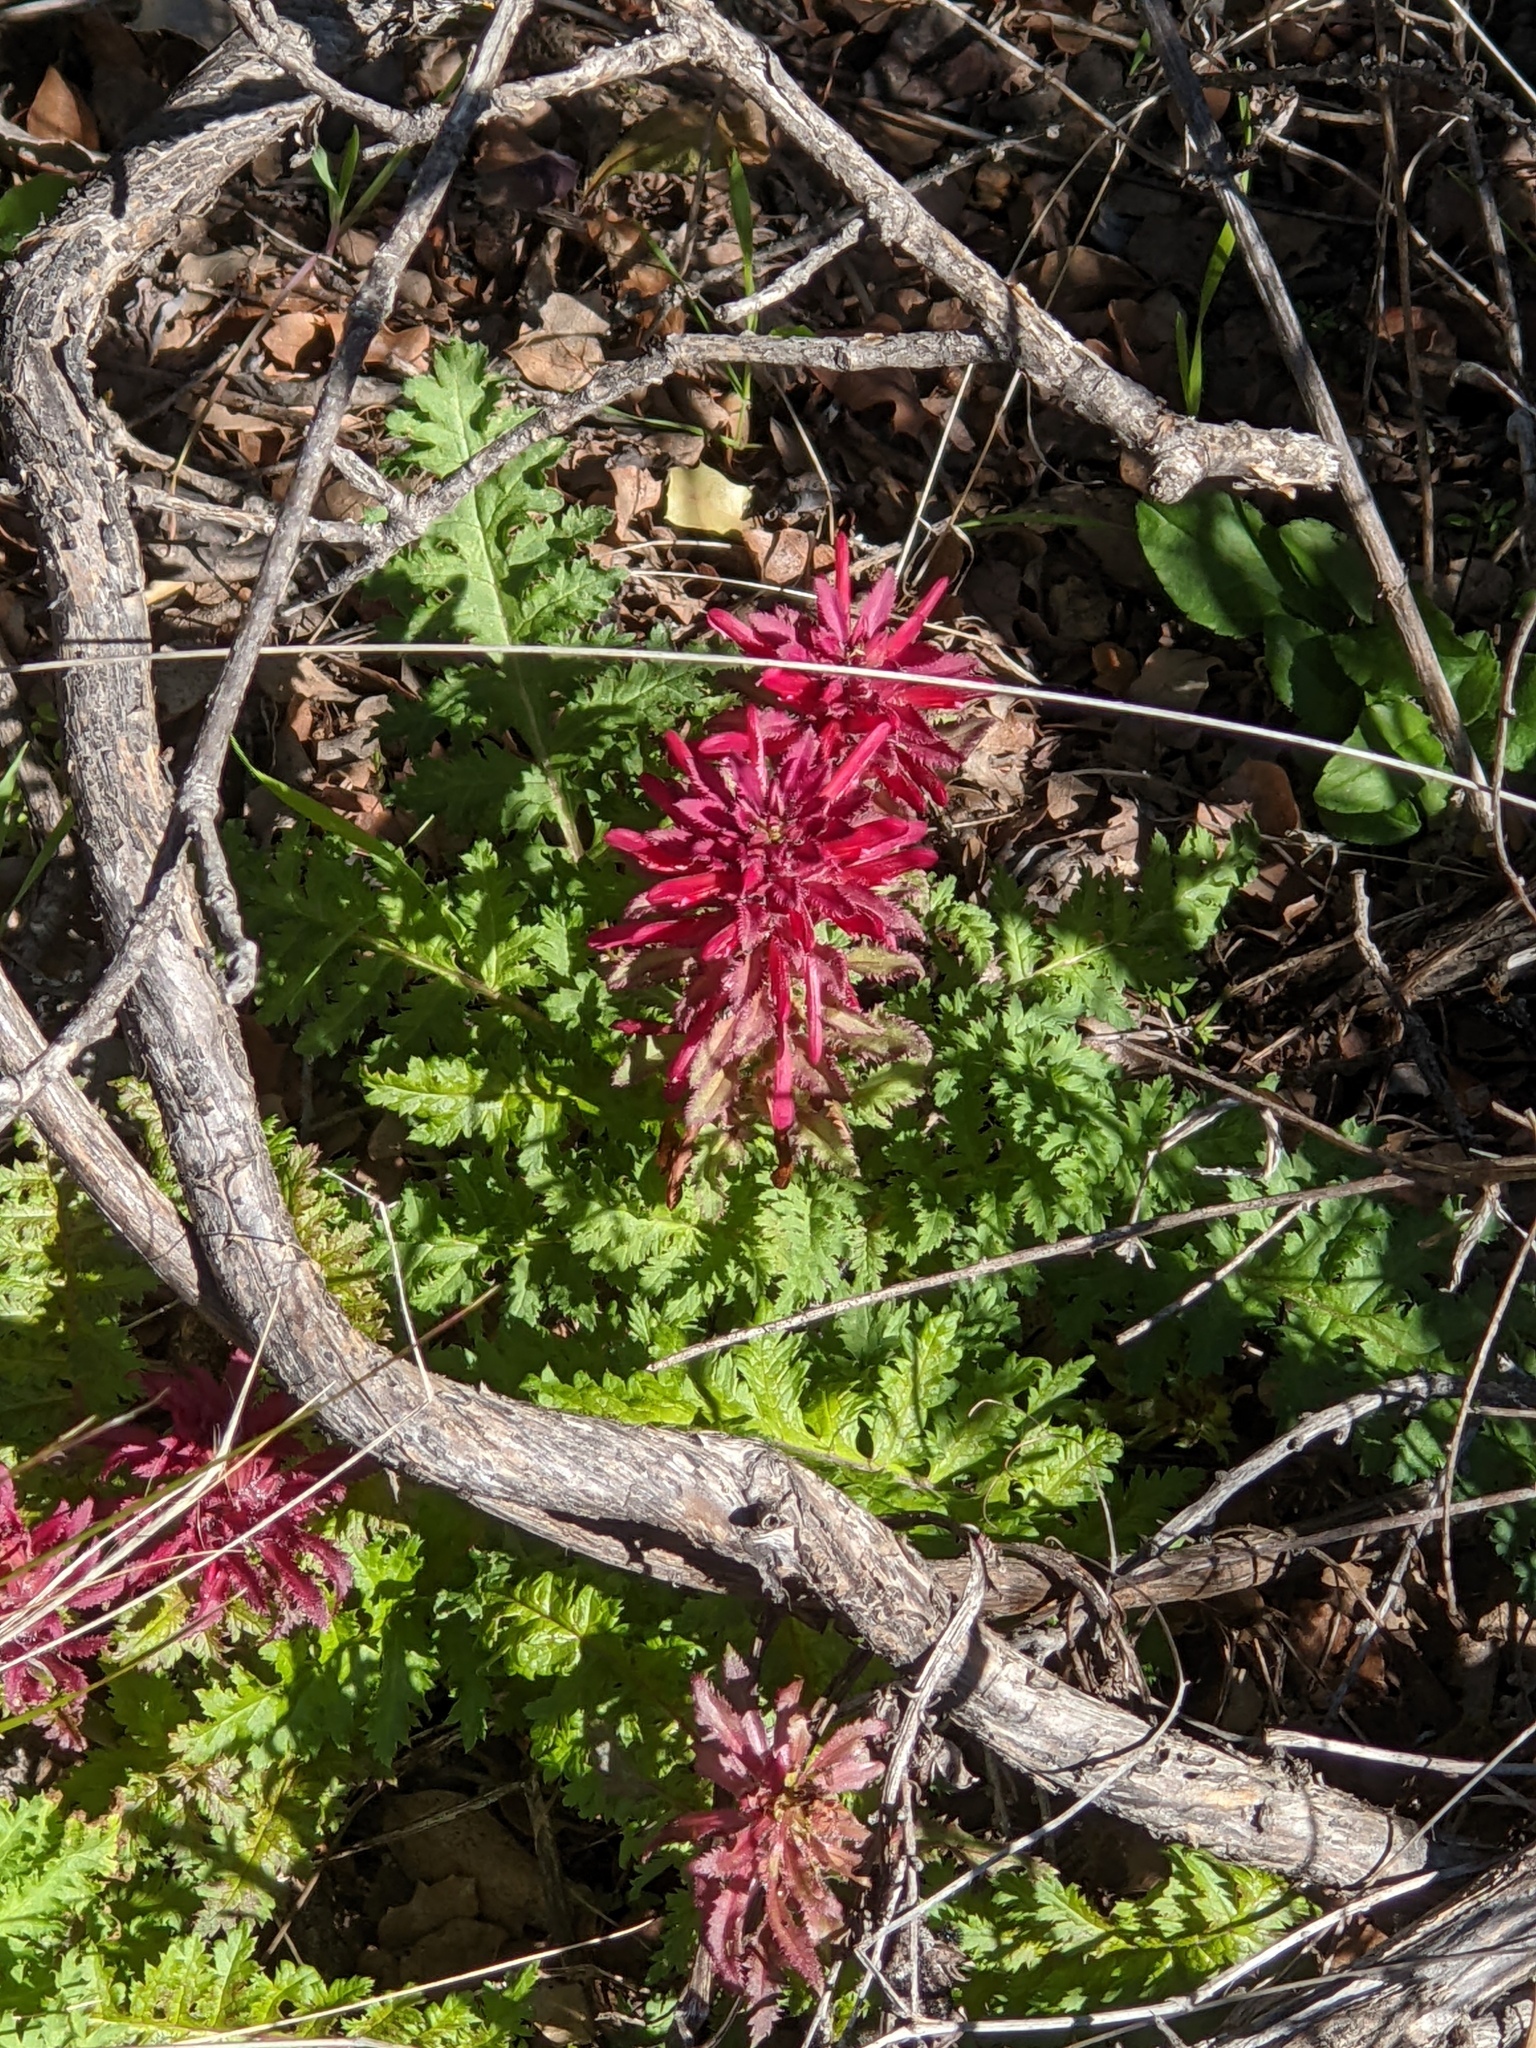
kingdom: Plantae
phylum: Tracheophyta
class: Magnoliopsida
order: Lamiales
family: Orobanchaceae
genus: Pedicularis
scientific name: Pedicularis densiflora
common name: Indian warrior
